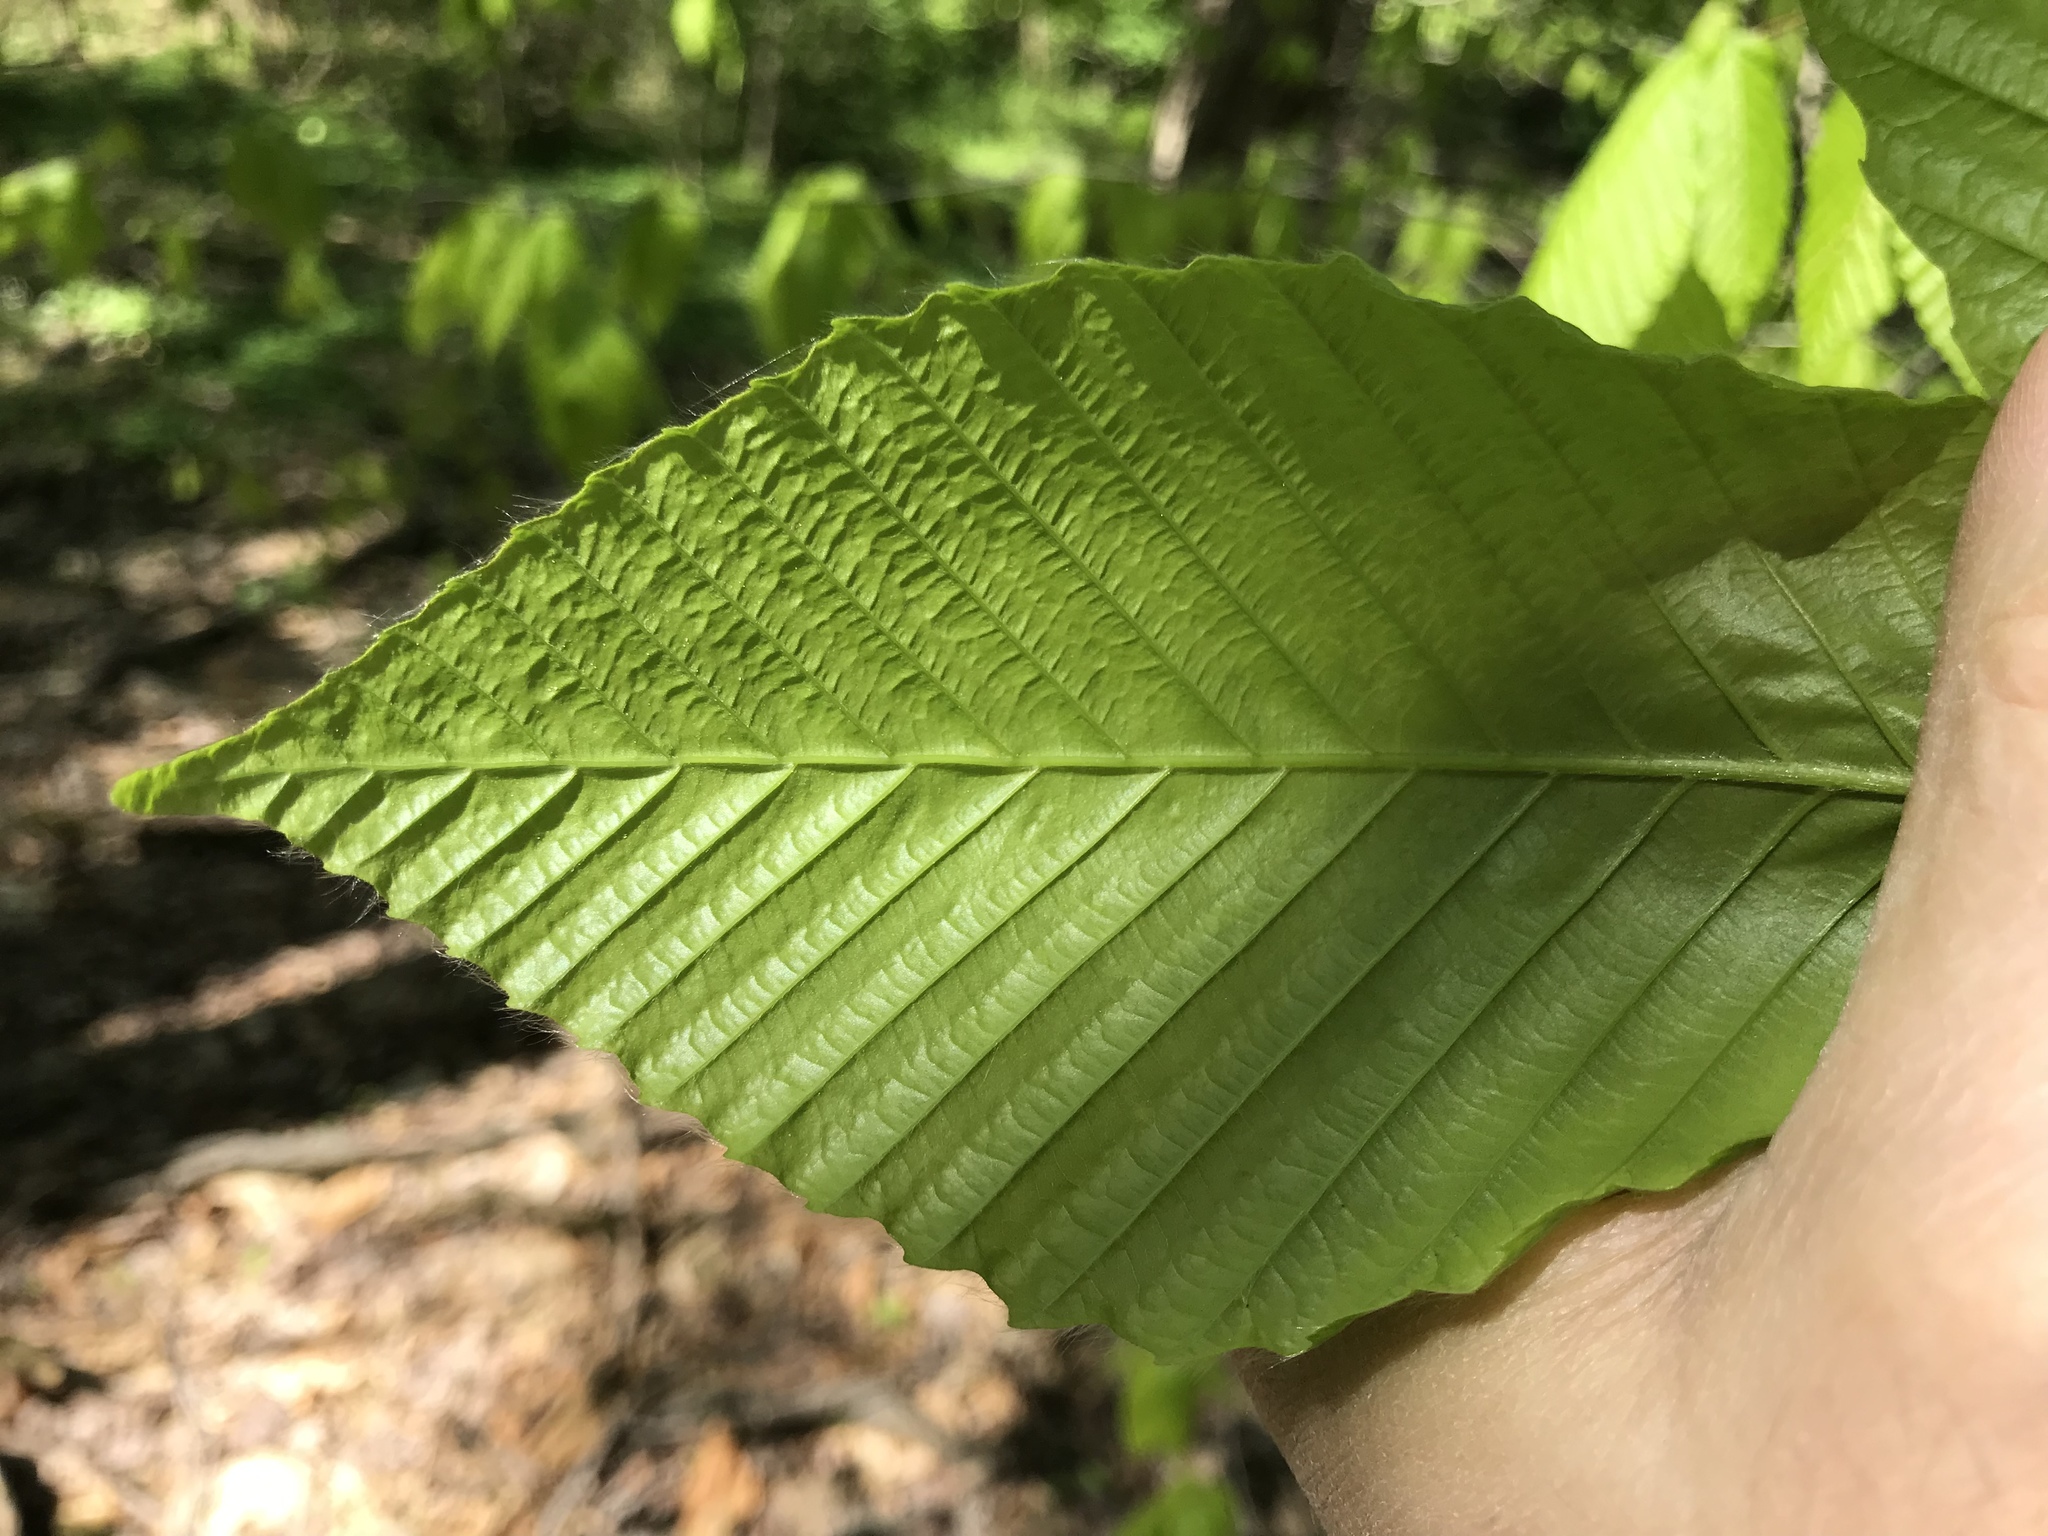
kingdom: Plantae
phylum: Tracheophyta
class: Magnoliopsida
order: Fagales
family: Fagaceae
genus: Fagus
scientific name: Fagus grandifolia
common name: American beech
